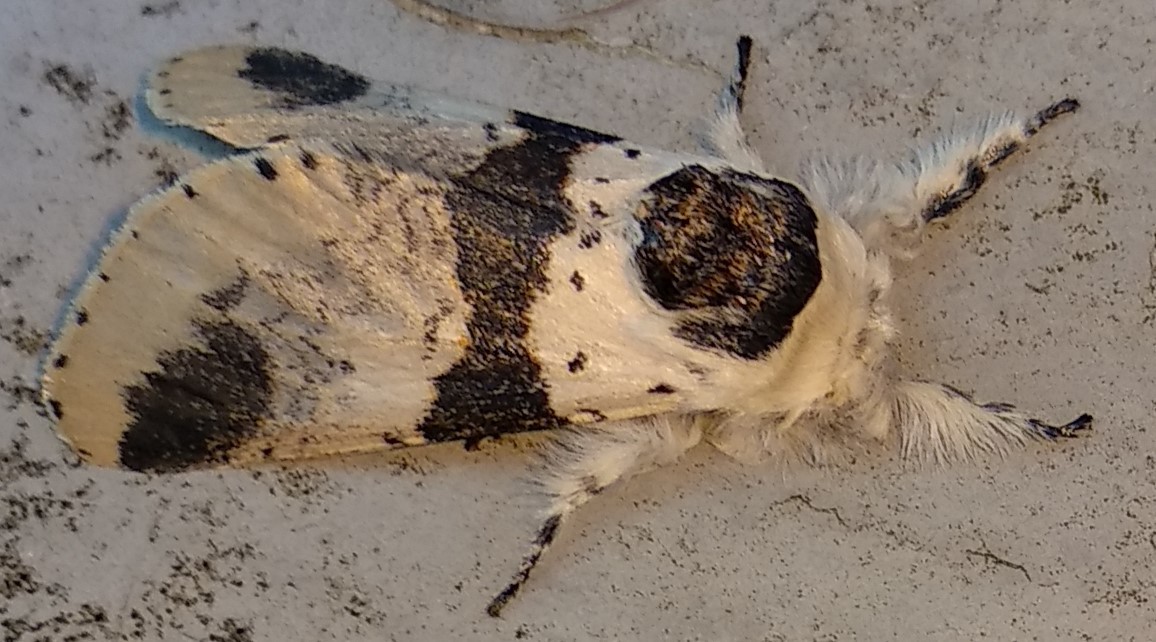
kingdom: Animalia
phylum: Arthropoda
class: Insecta
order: Lepidoptera
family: Notodontidae
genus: Furcula
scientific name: Furcula modesta
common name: Modest furcula moth
